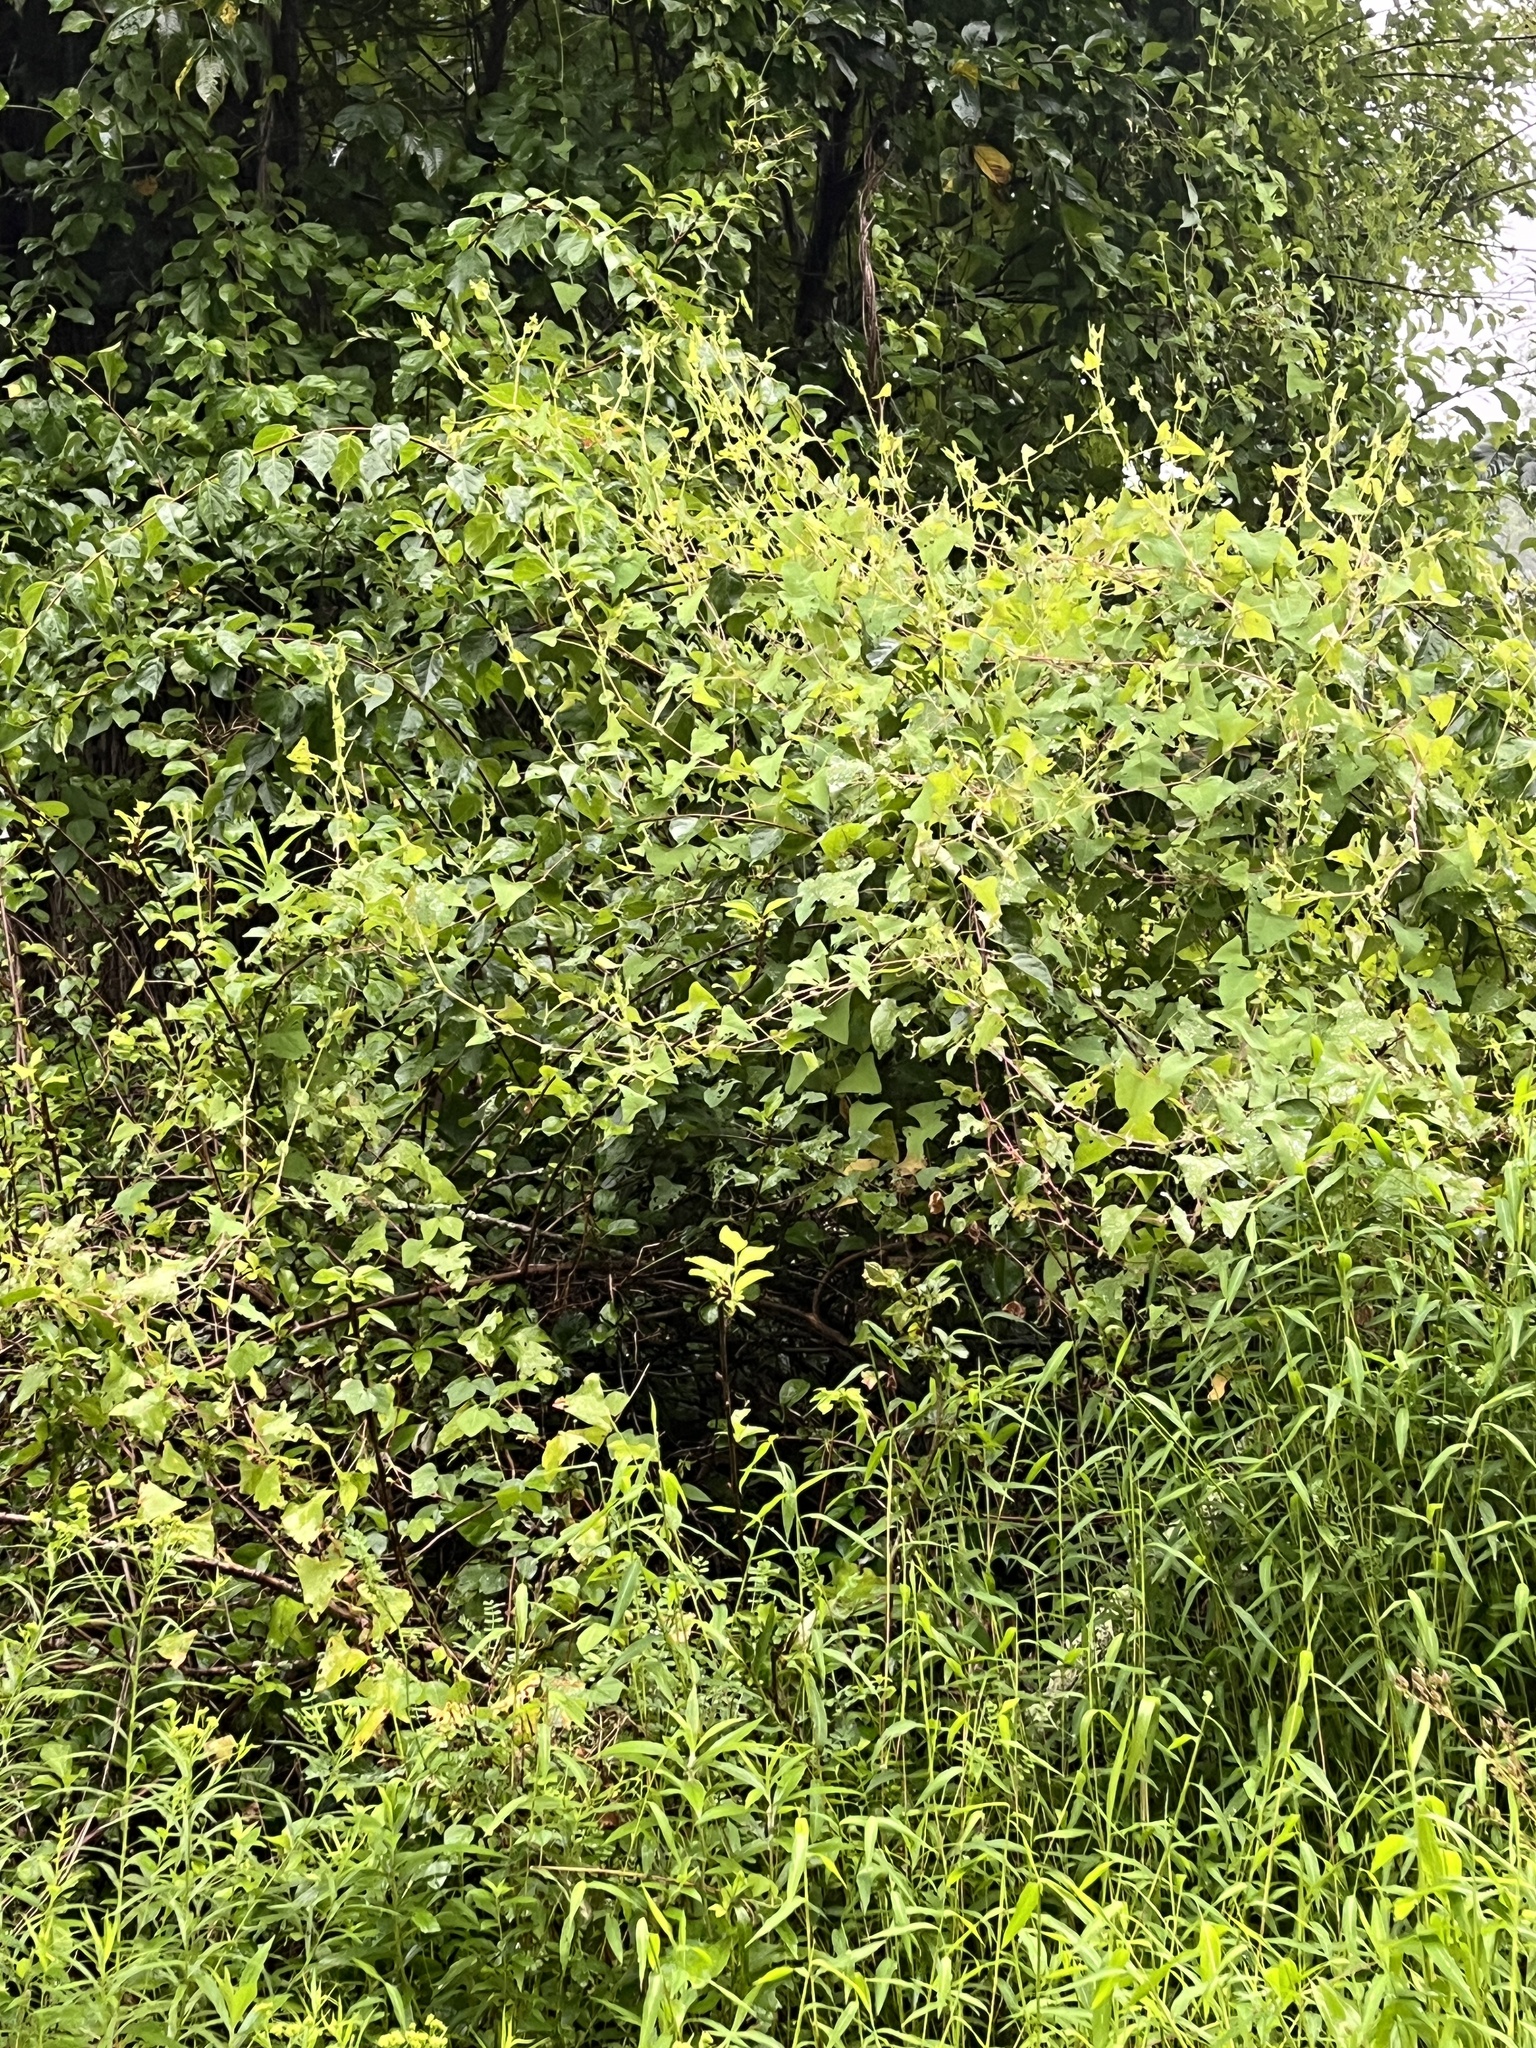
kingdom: Plantae
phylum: Tracheophyta
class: Magnoliopsida
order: Caryophyllales
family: Polygonaceae
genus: Persicaria
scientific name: Persicaria perfoliata
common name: Asiatic tearthumb
